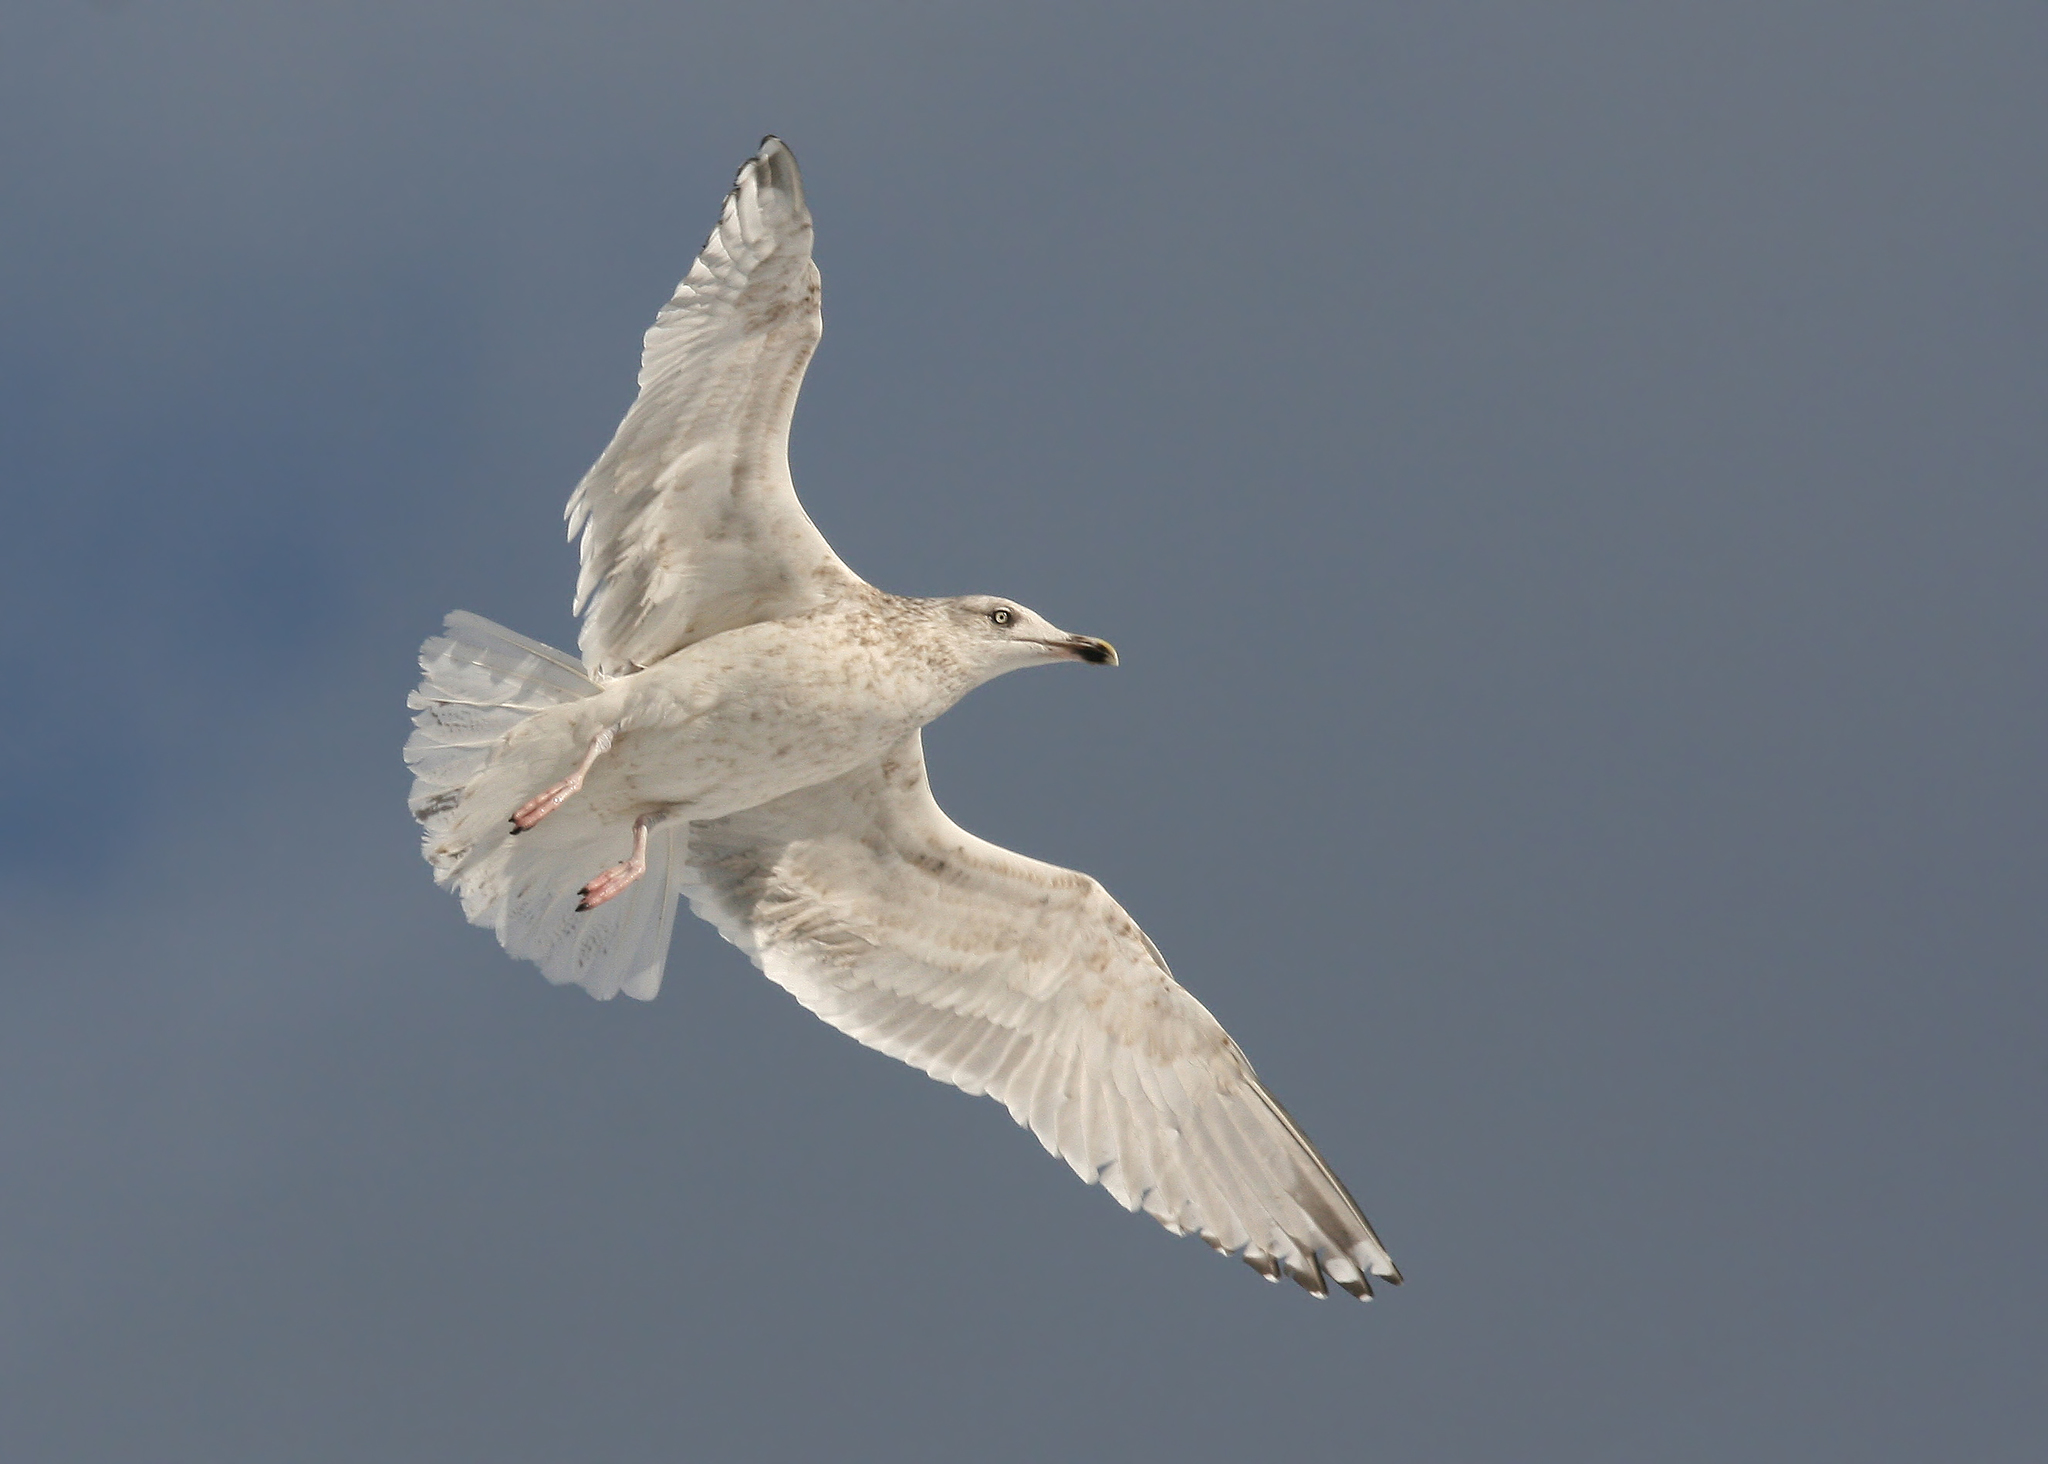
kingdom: Animalia
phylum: Chordata
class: Aves
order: Charadriiformes
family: Laridae
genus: Larus
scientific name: Larus argentatus
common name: Herring gull
